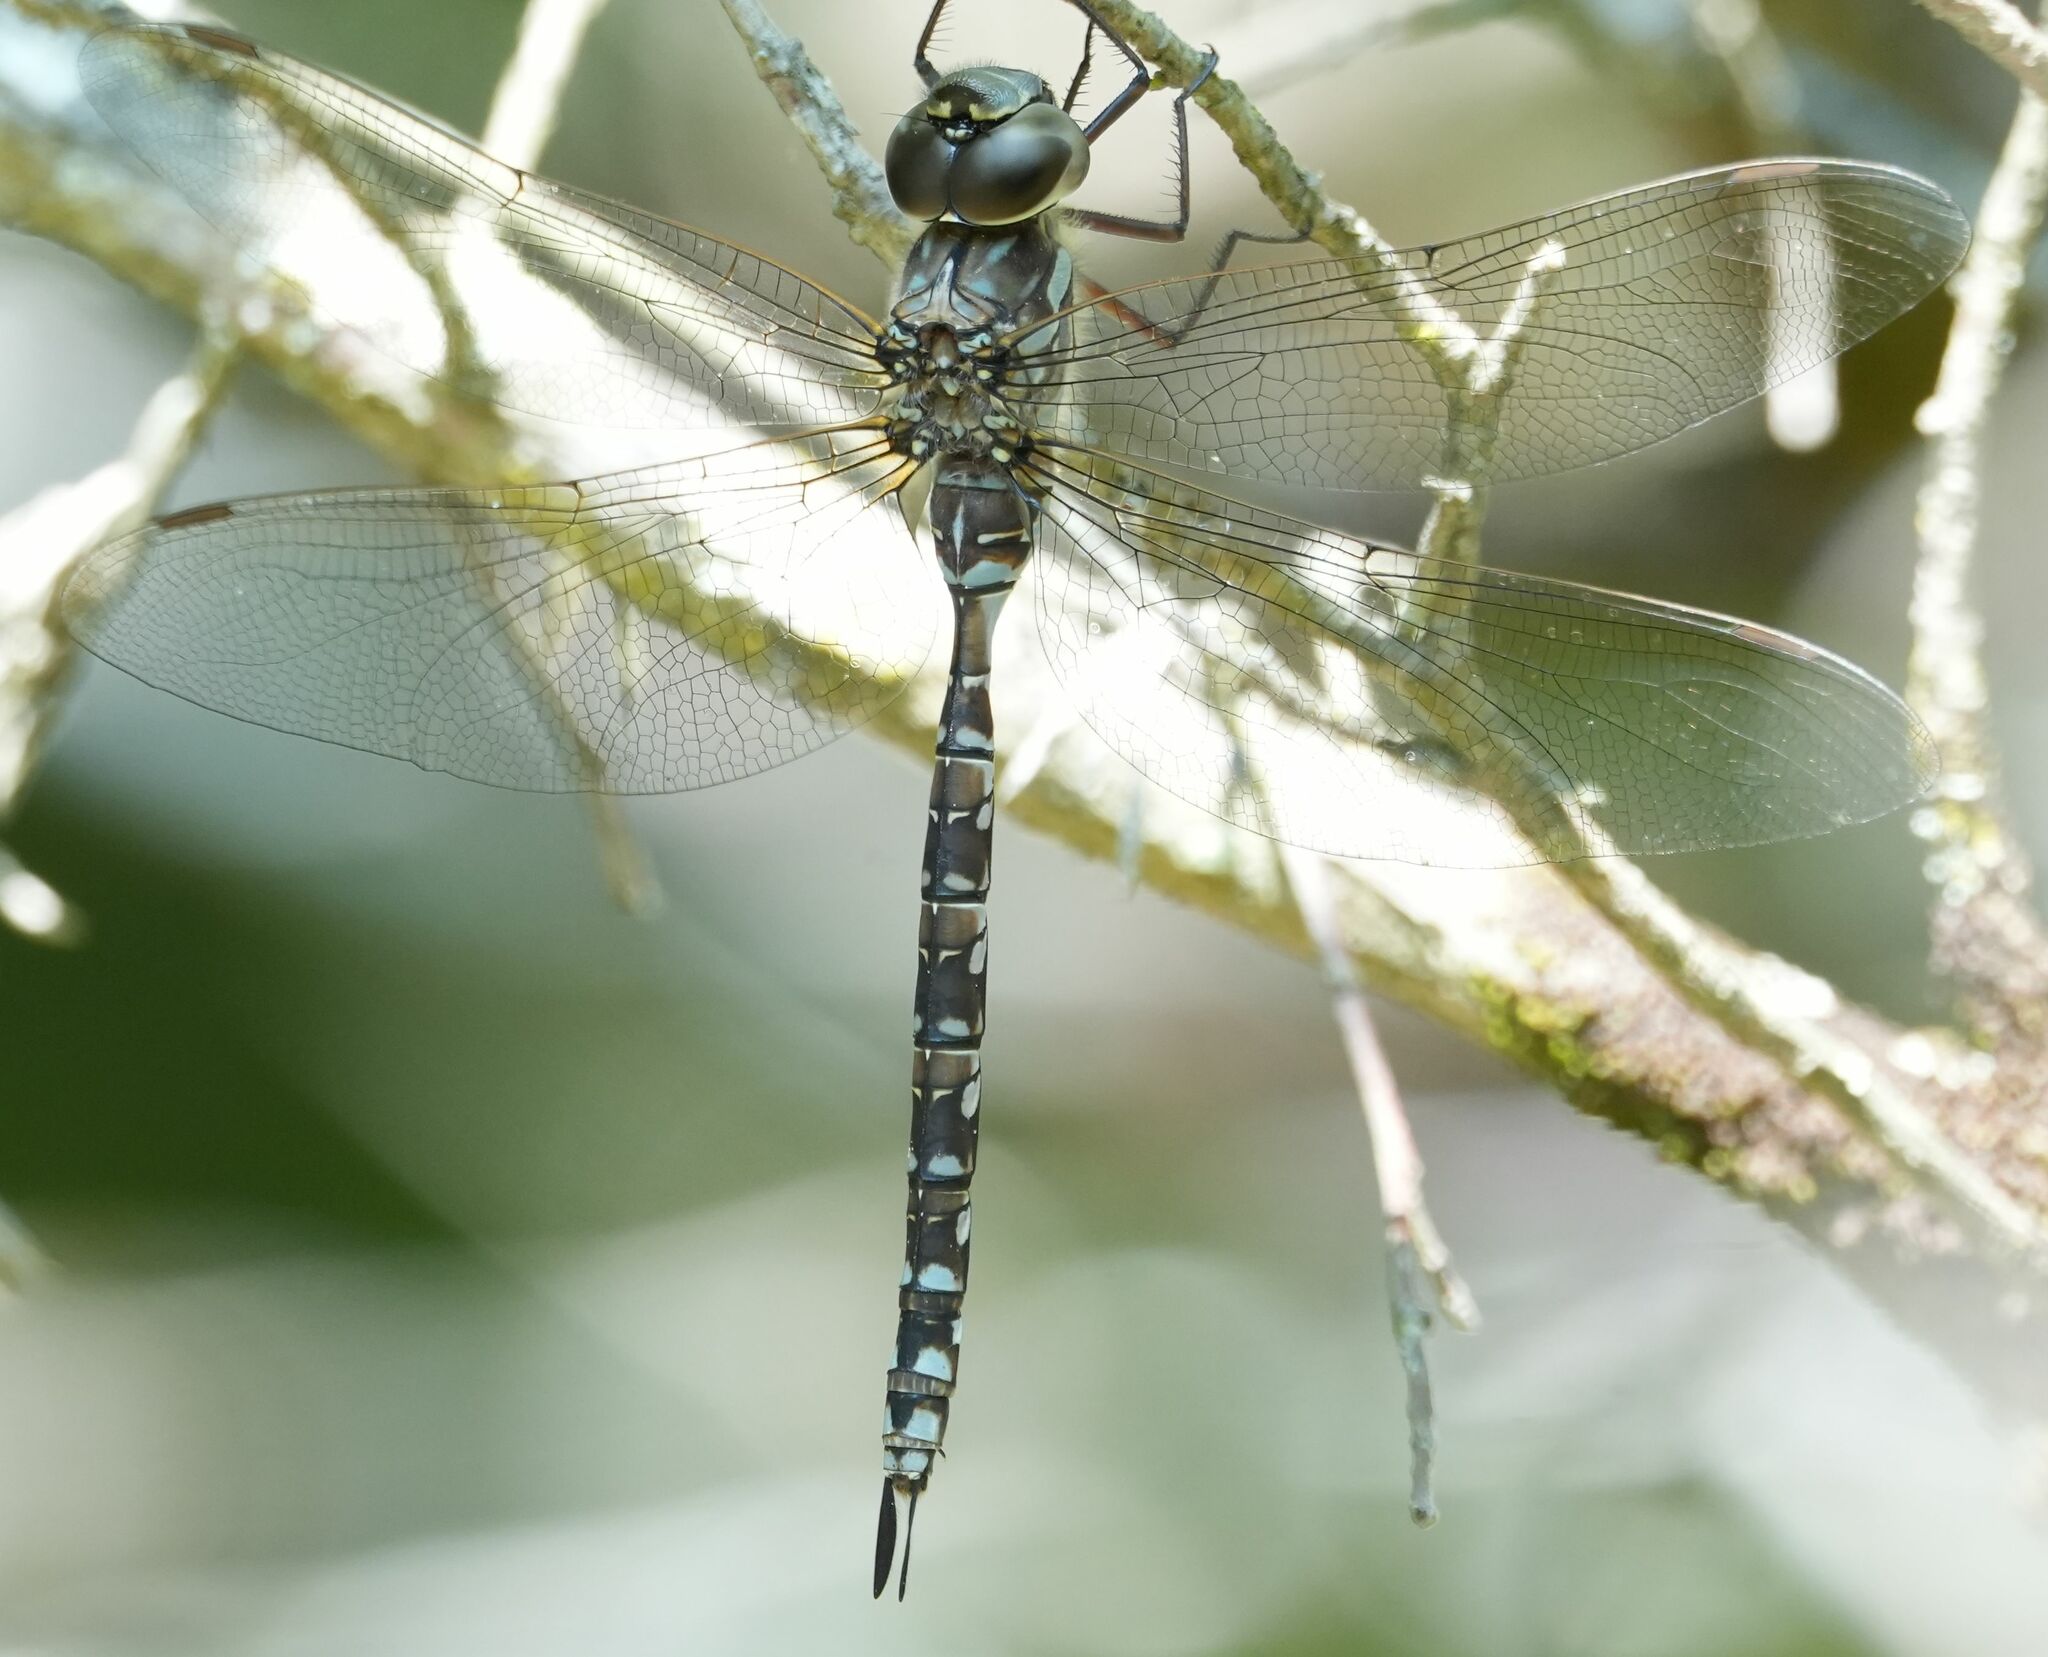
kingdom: Animalia
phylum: Arthropoda
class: Insecta
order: Odonata
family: Aeshnidae
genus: Aeshna
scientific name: Aeshna canadensis
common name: Canada darner
